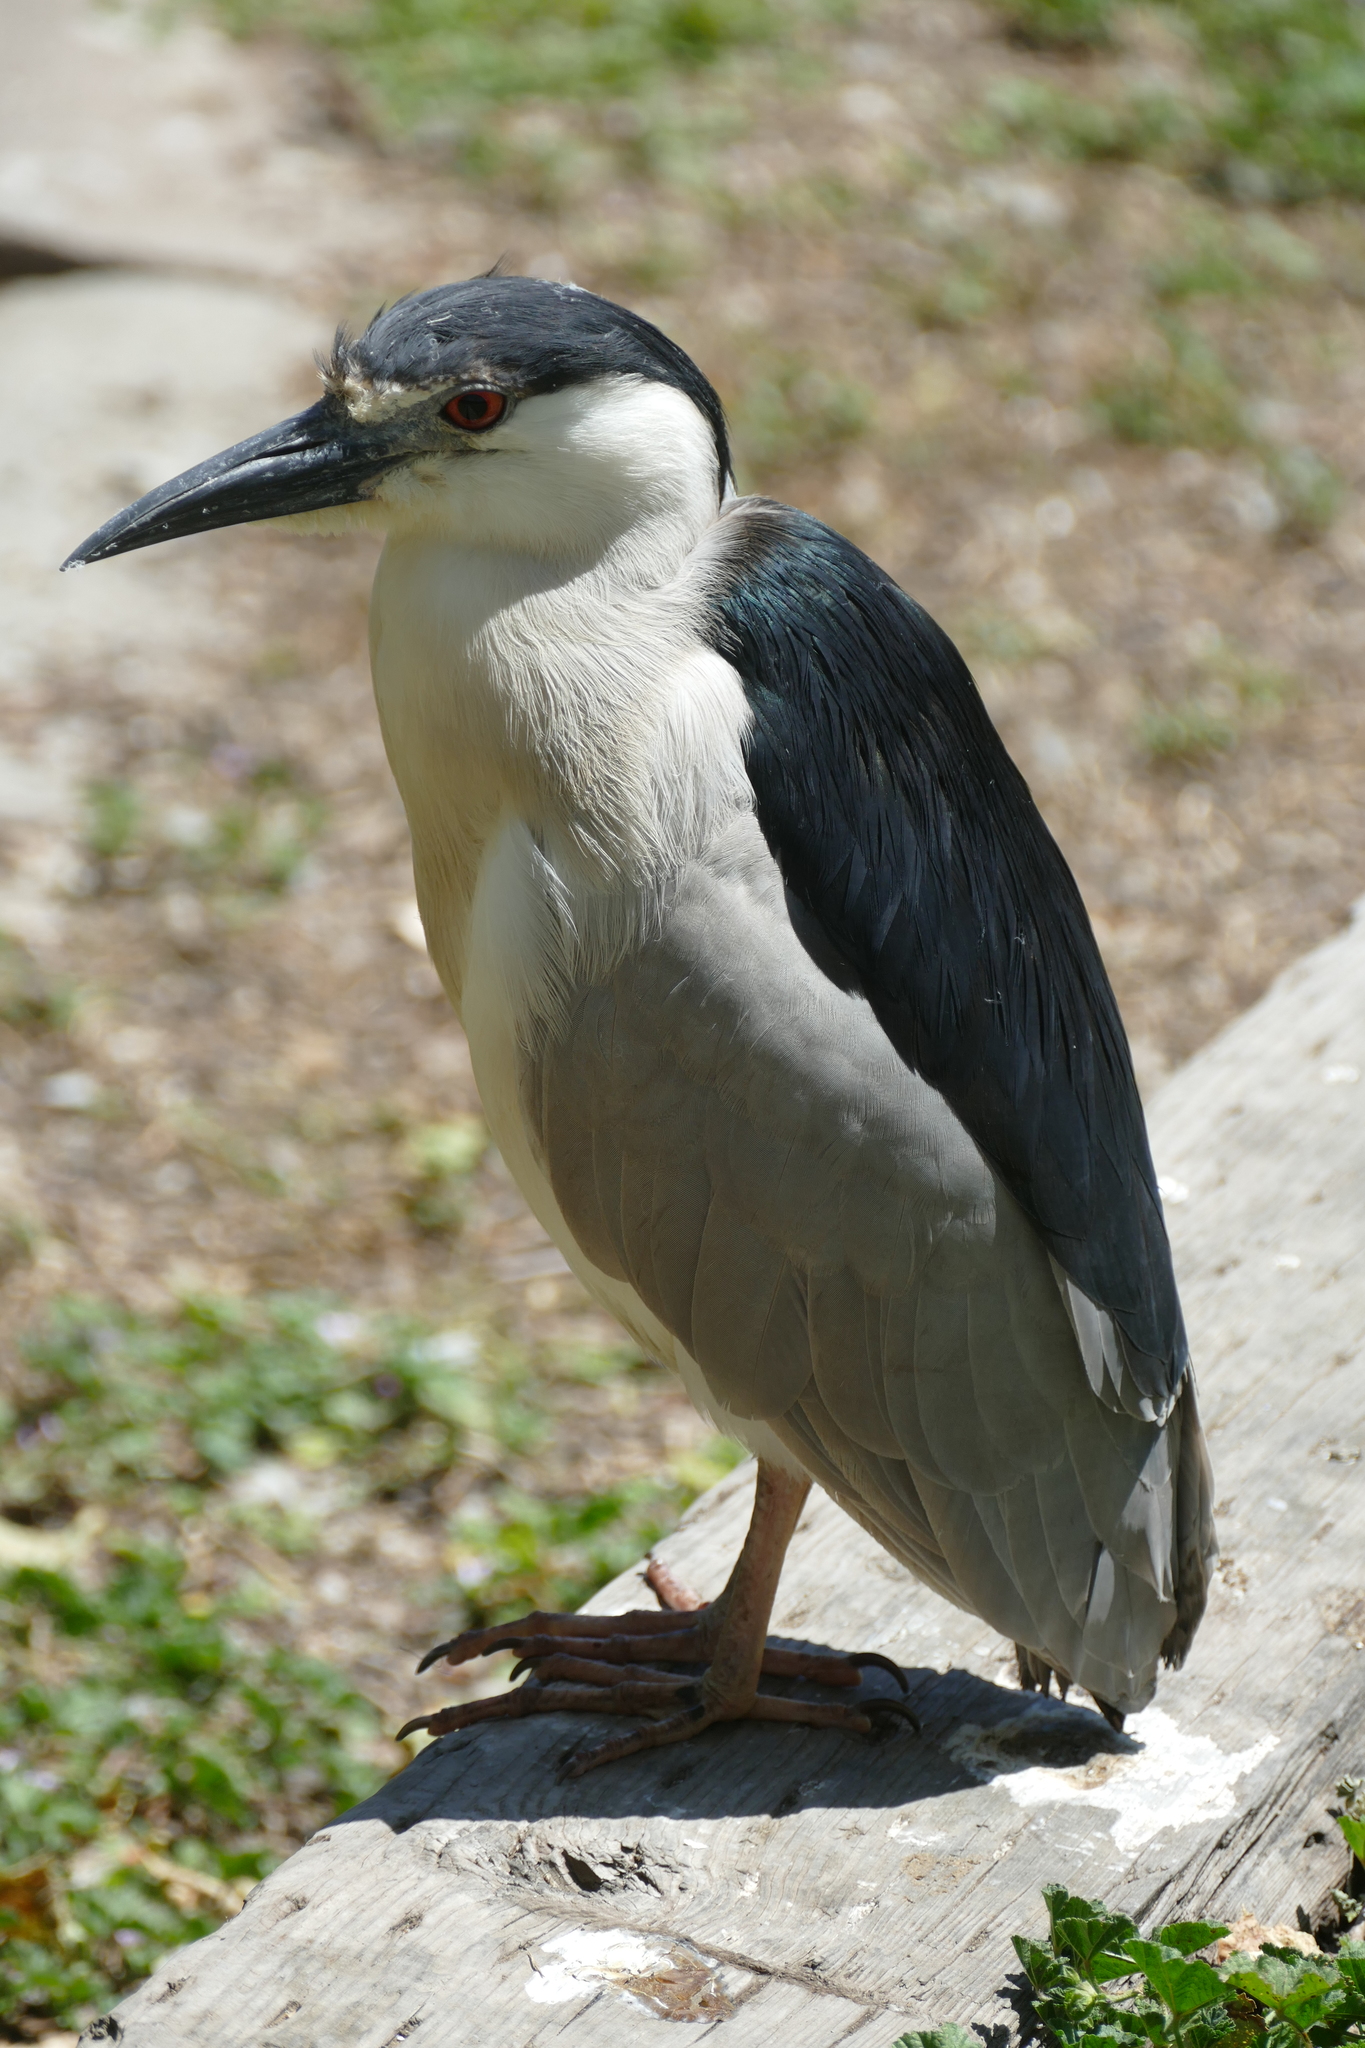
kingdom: Animalia
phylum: Chordata
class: Aves
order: Pelecaniformes
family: Ardeidae
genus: Nycticorax
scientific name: Nycticorax nycticorax
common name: Black-crowned night heron
